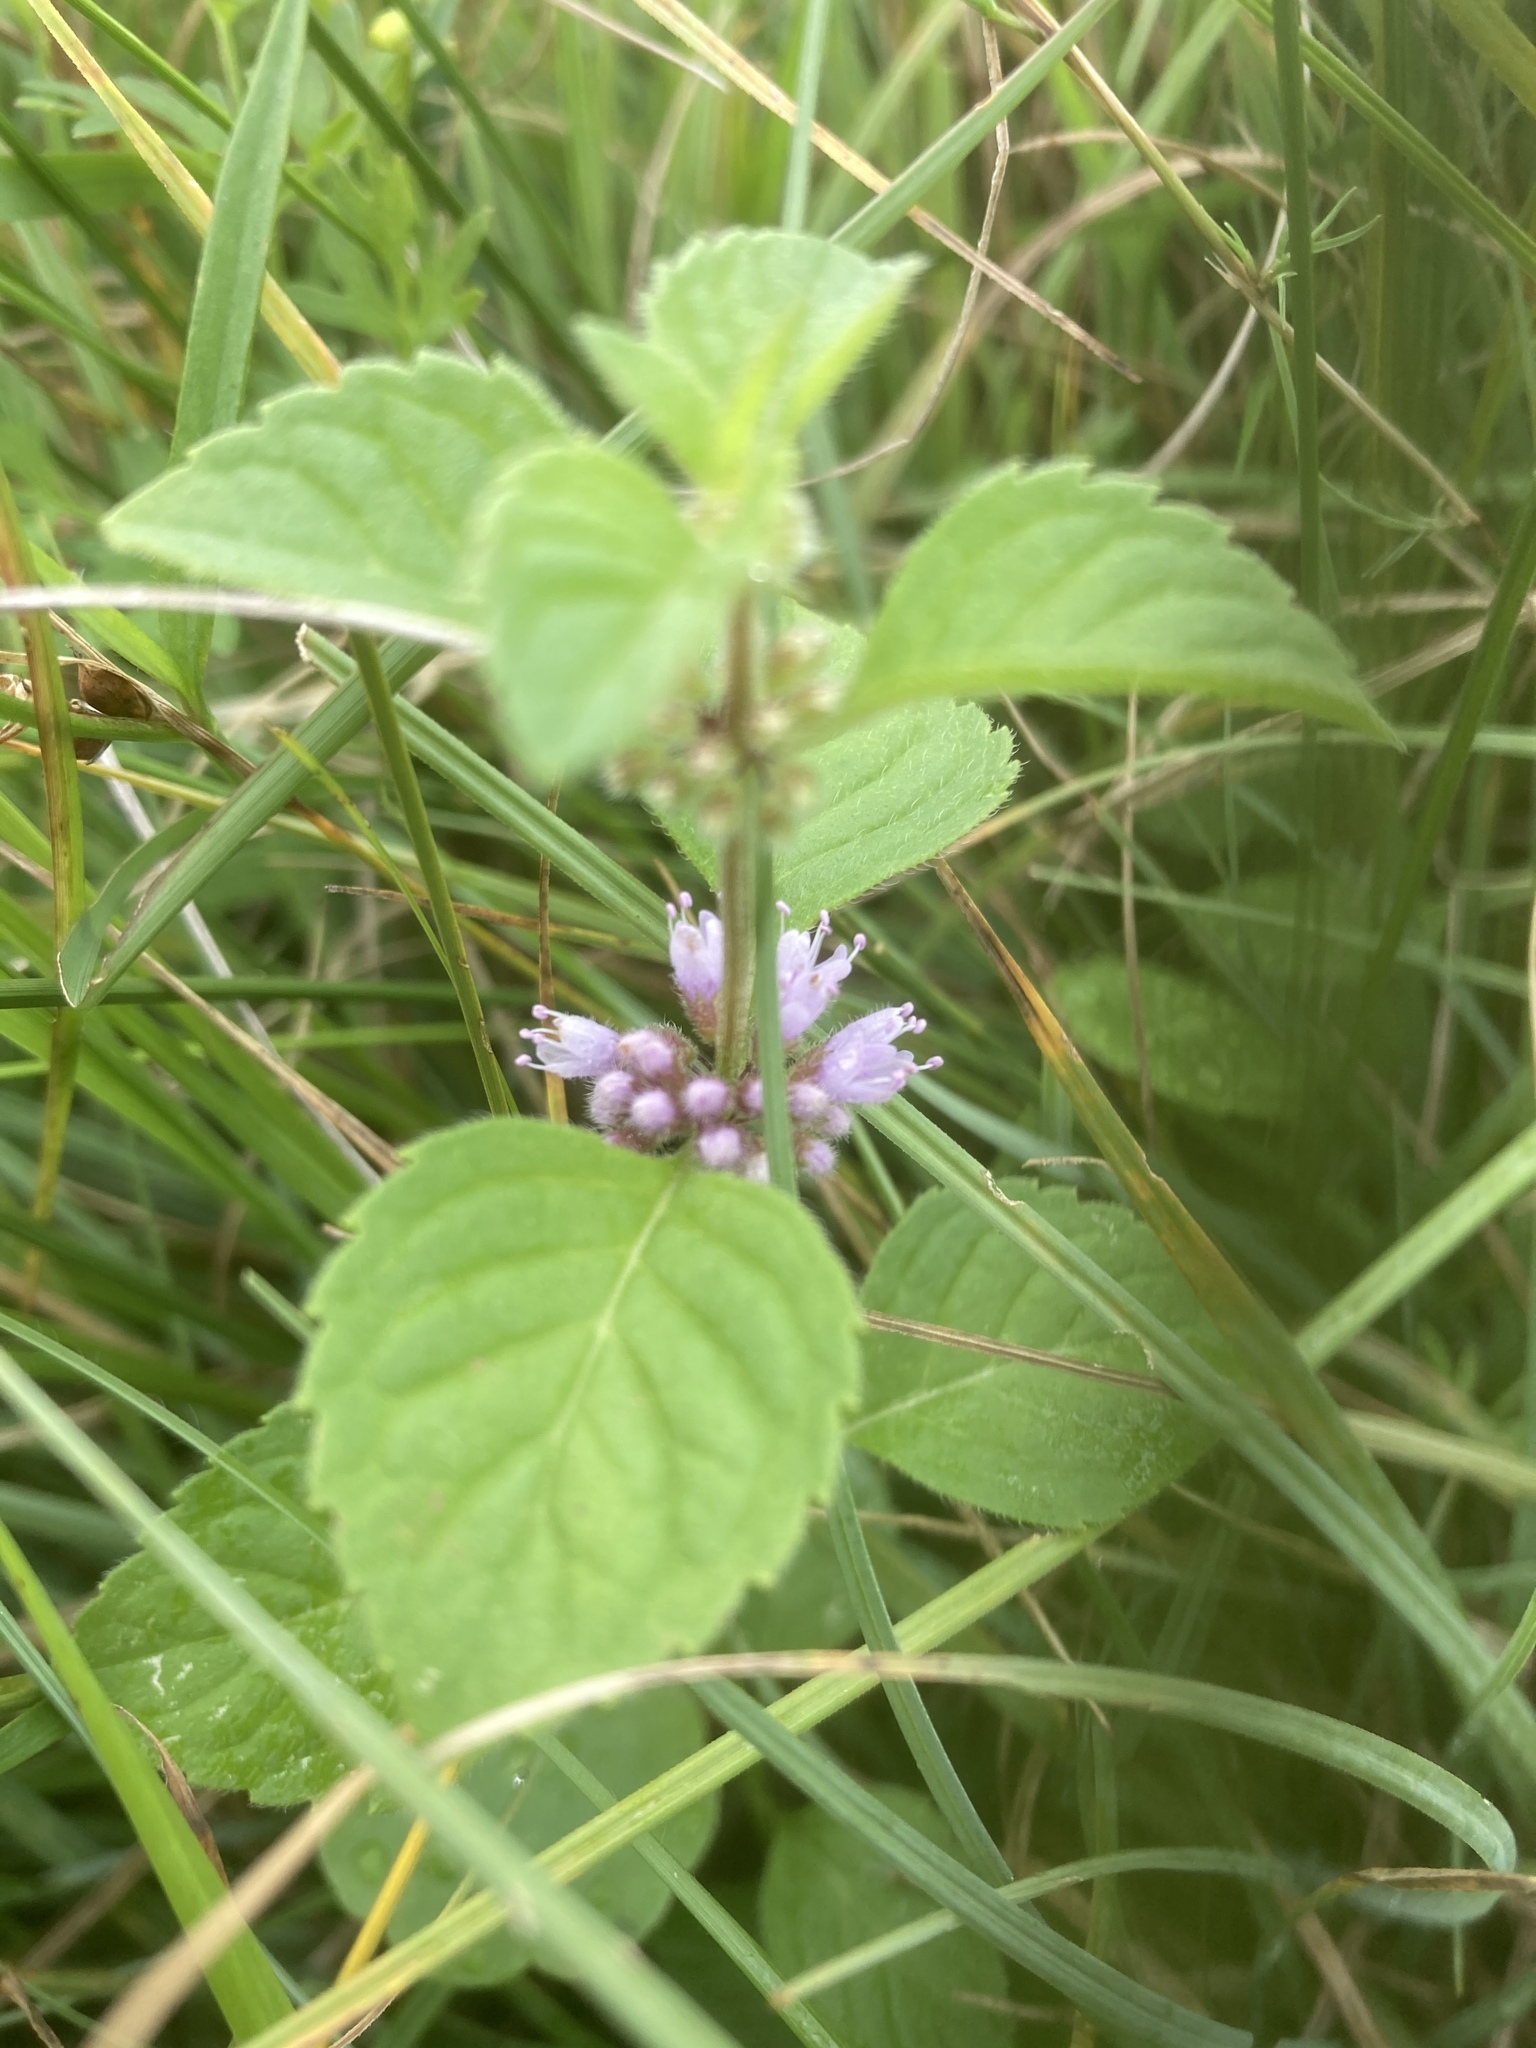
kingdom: Plantae
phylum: Tracheophyta
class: Magnoliopsida
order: Lamiales
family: Lamiaceae
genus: Mentha
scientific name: Mentha arvensis
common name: Corn mint
